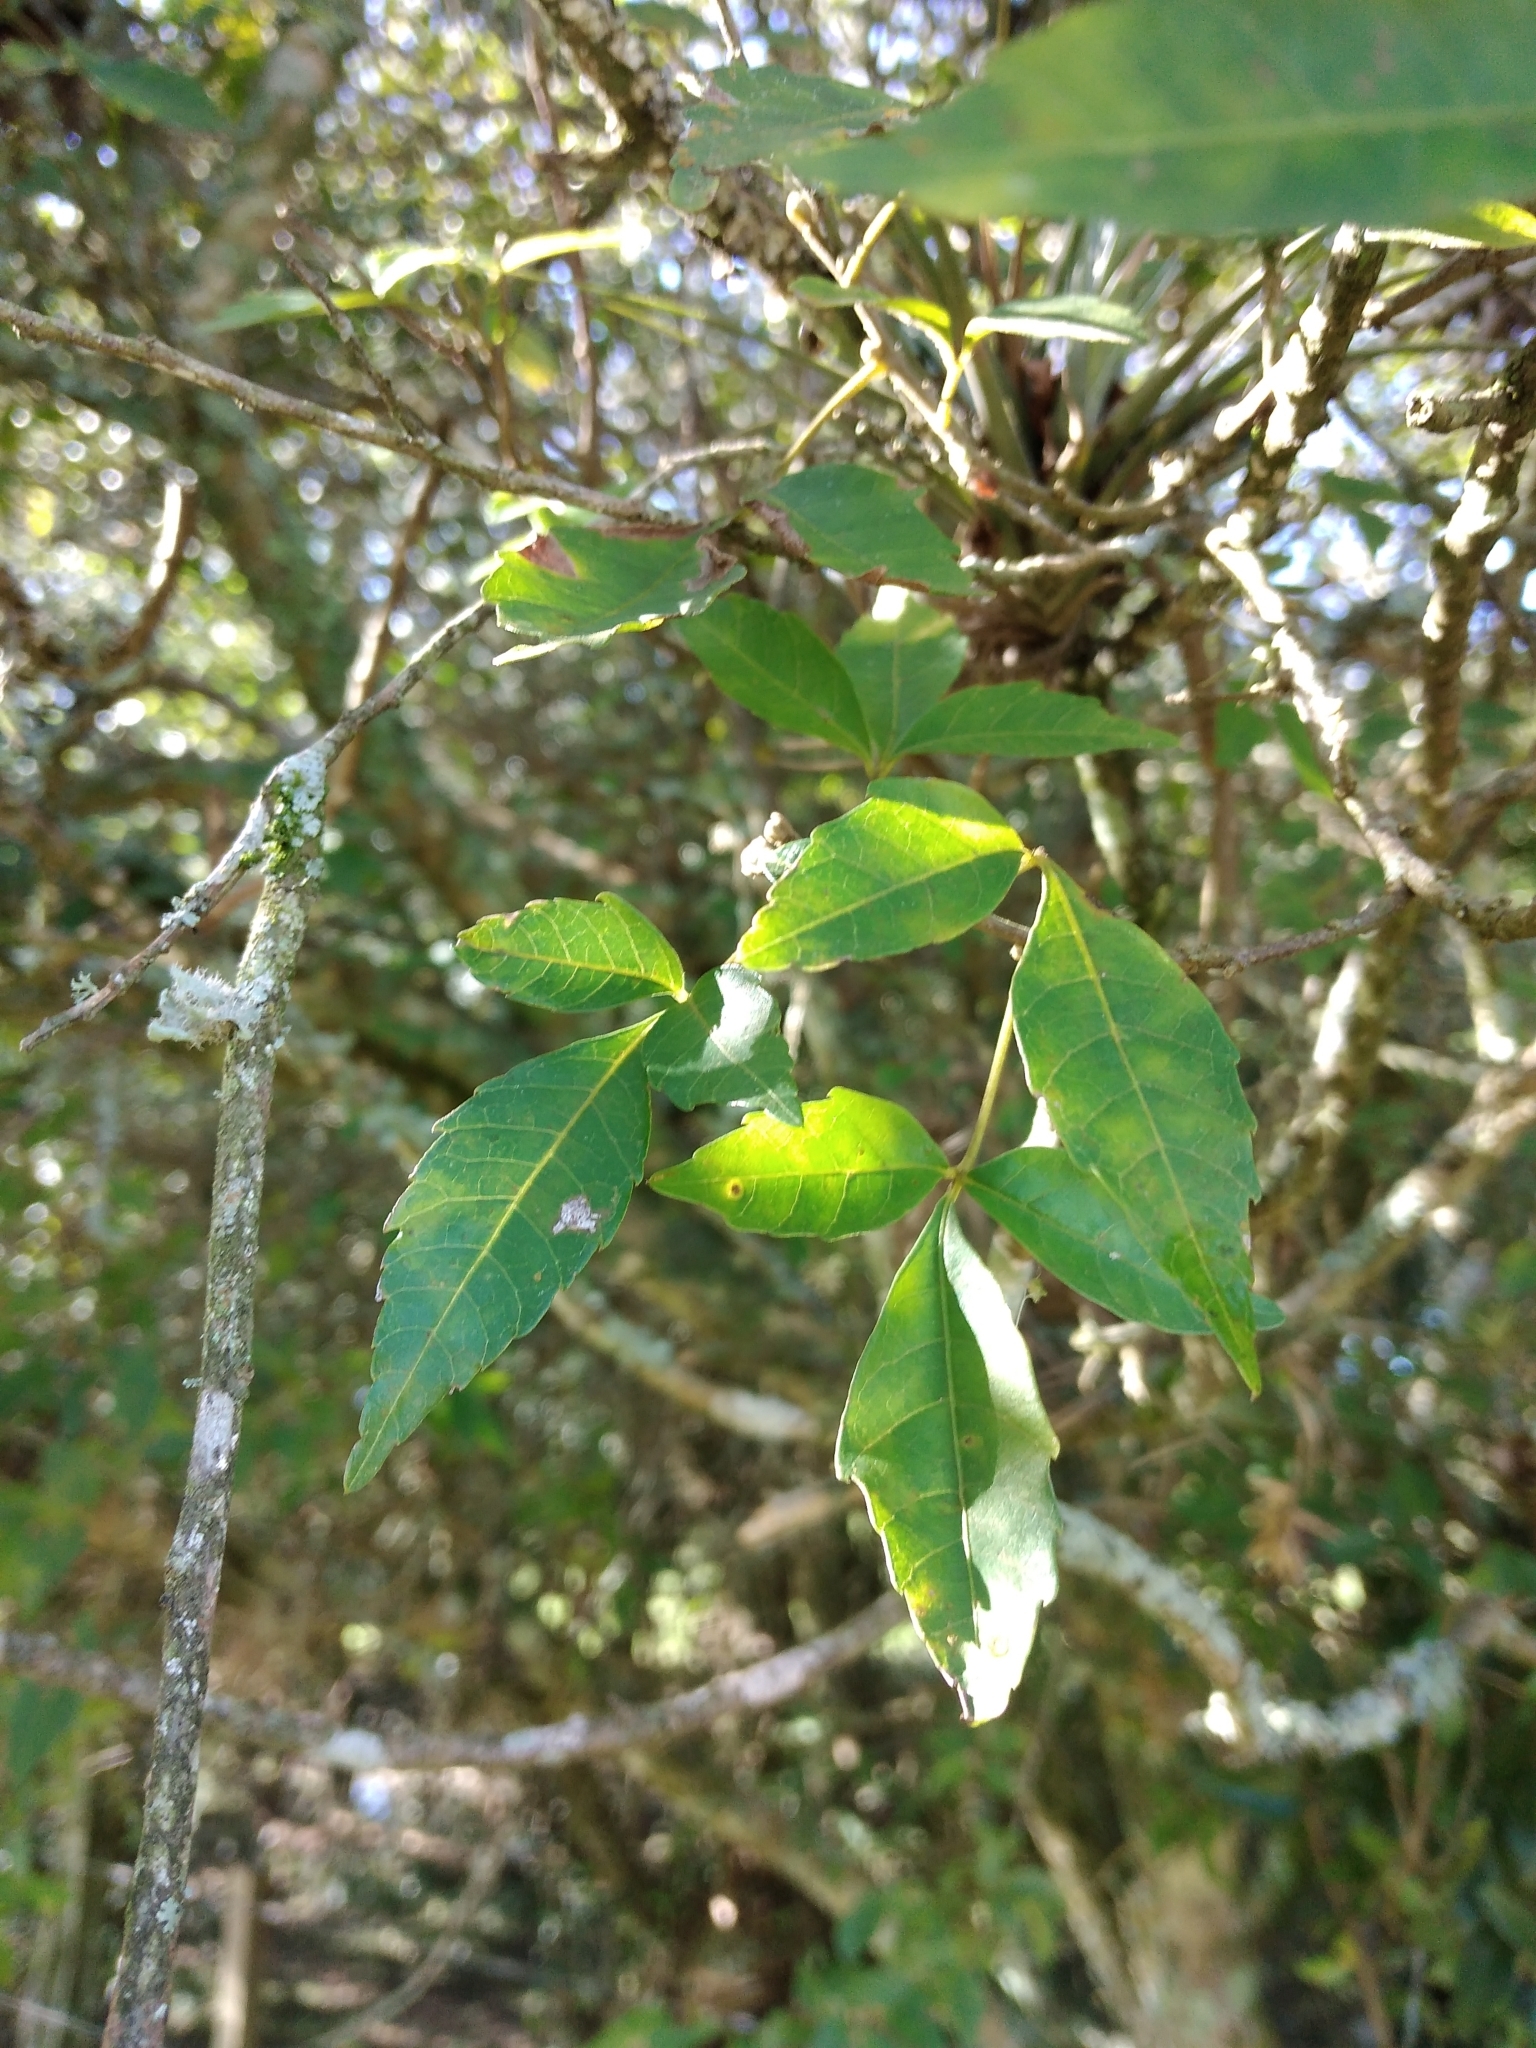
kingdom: Plantae
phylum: Tracheophyta
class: Magnoliopsida
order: Sapindales
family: Sapindaceae
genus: Allophylus
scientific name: Allophylus edulis
